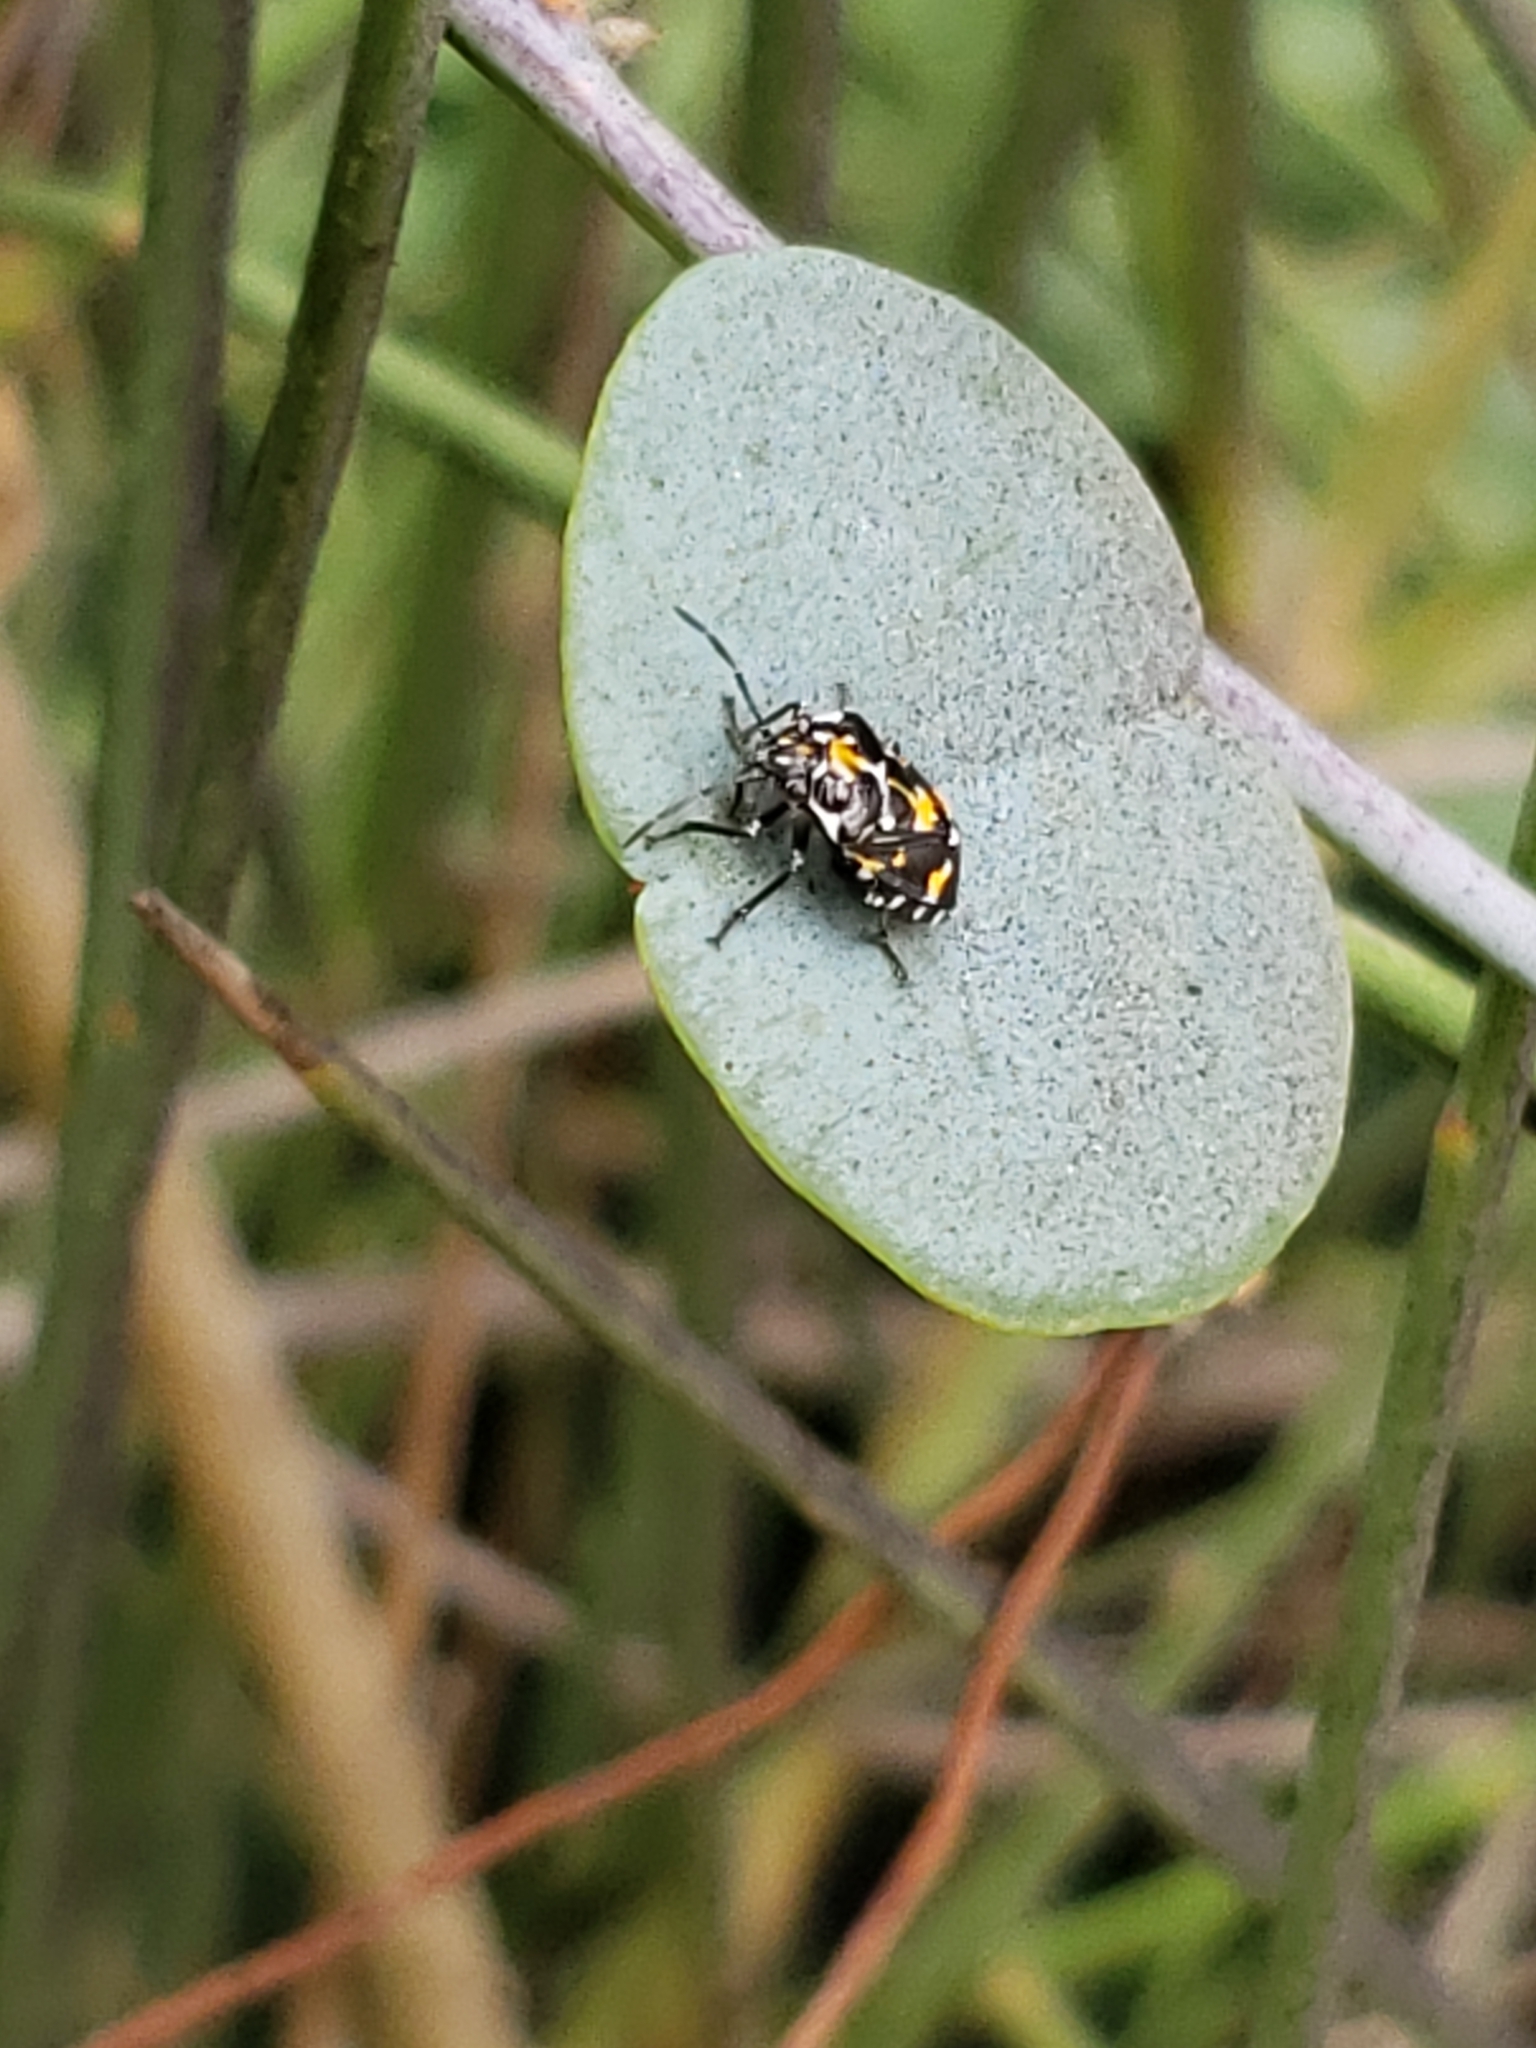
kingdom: Animalia
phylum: Arthropoda
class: Insecta
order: Hemiptera
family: Pentatomidae
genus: Stenozygum
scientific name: Stenozygum coloratum
